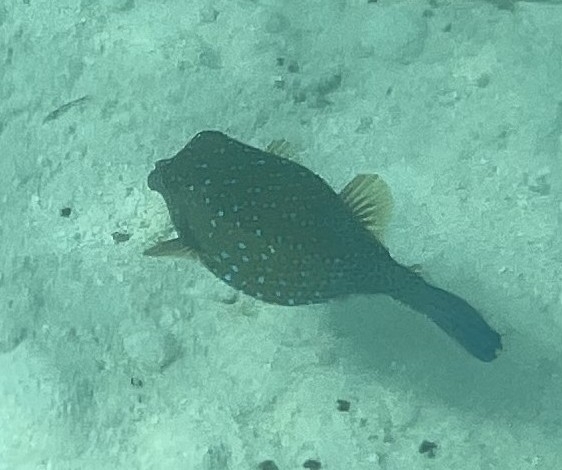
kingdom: Animalia
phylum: Chordata
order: Tetraodontiformes
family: Ostraciidae
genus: Ostracion
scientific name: Ostracion cubicus
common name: Cube trunkfish
